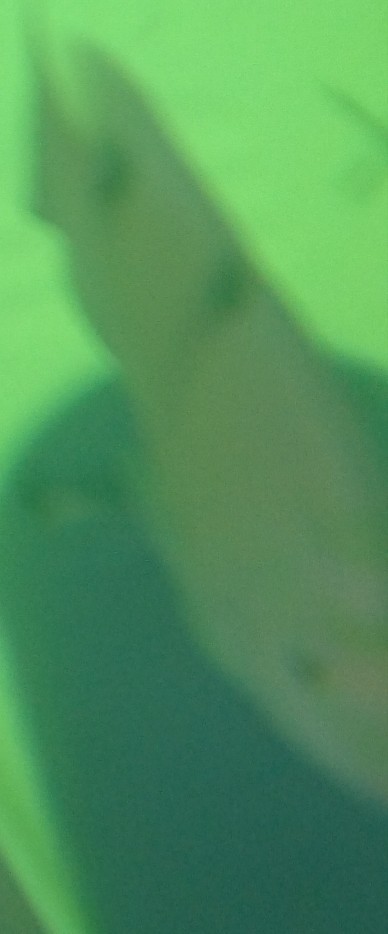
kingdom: Animalia
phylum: Chordata
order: Perciformes
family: Pomacentridae
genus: Dischistodus
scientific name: Dischistodus perspicillatus
